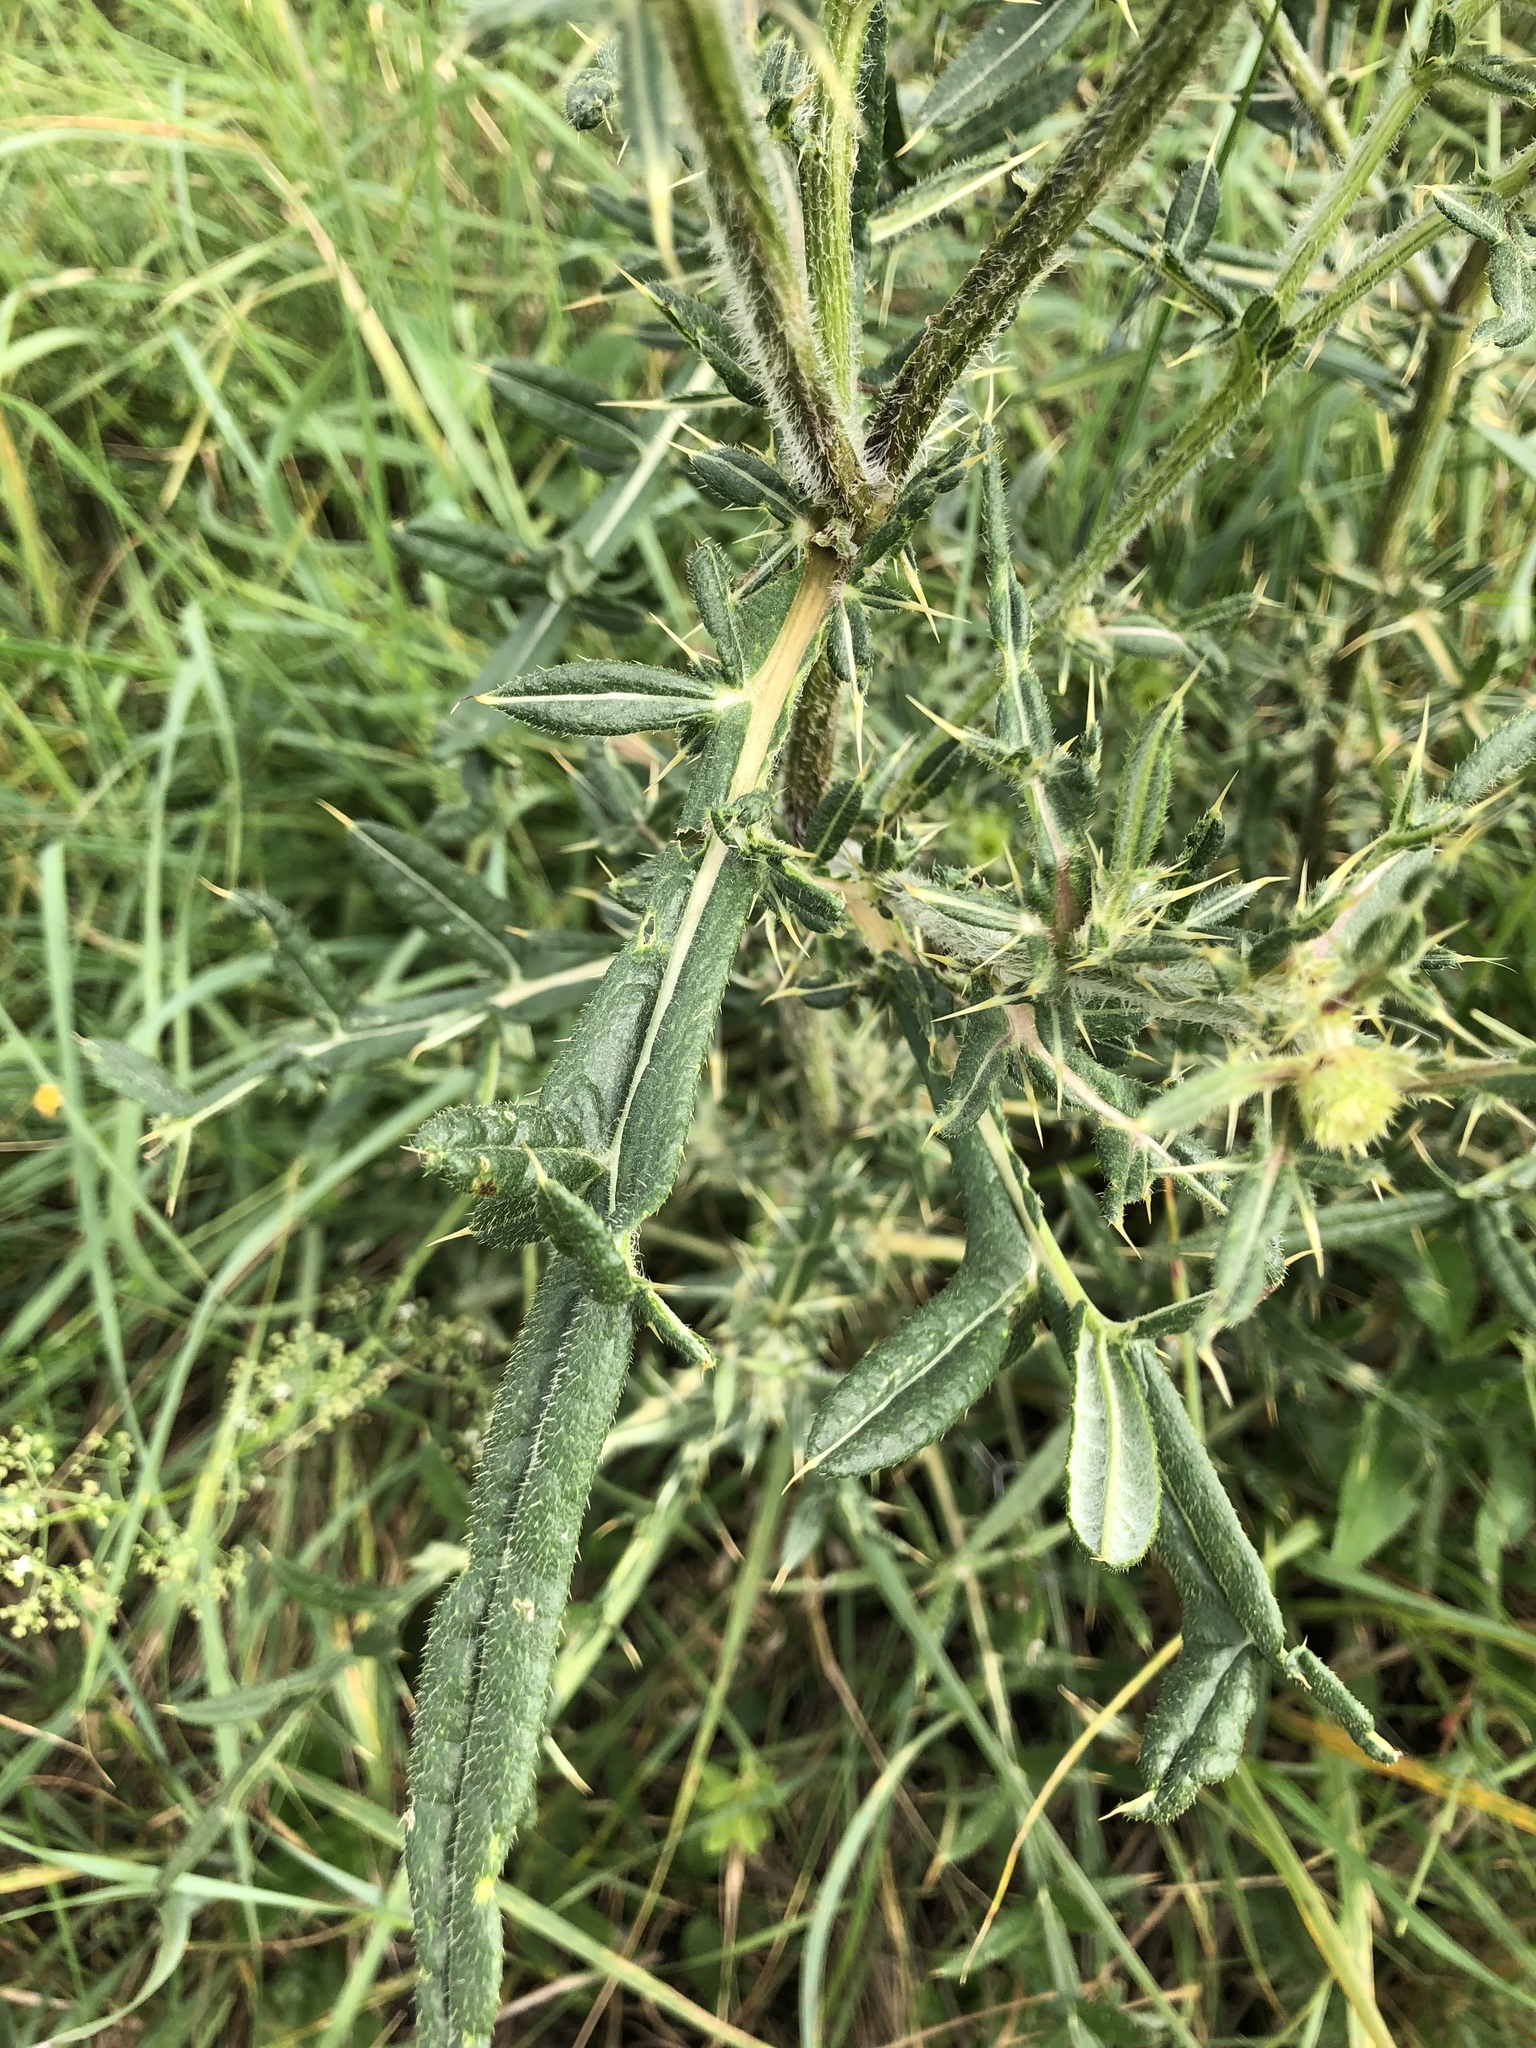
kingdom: Plantae
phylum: Tracheophyta
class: Magnoliopsida
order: Asterales
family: Asteraceae
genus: Lophiolepis
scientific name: Lophiolepis furiens
